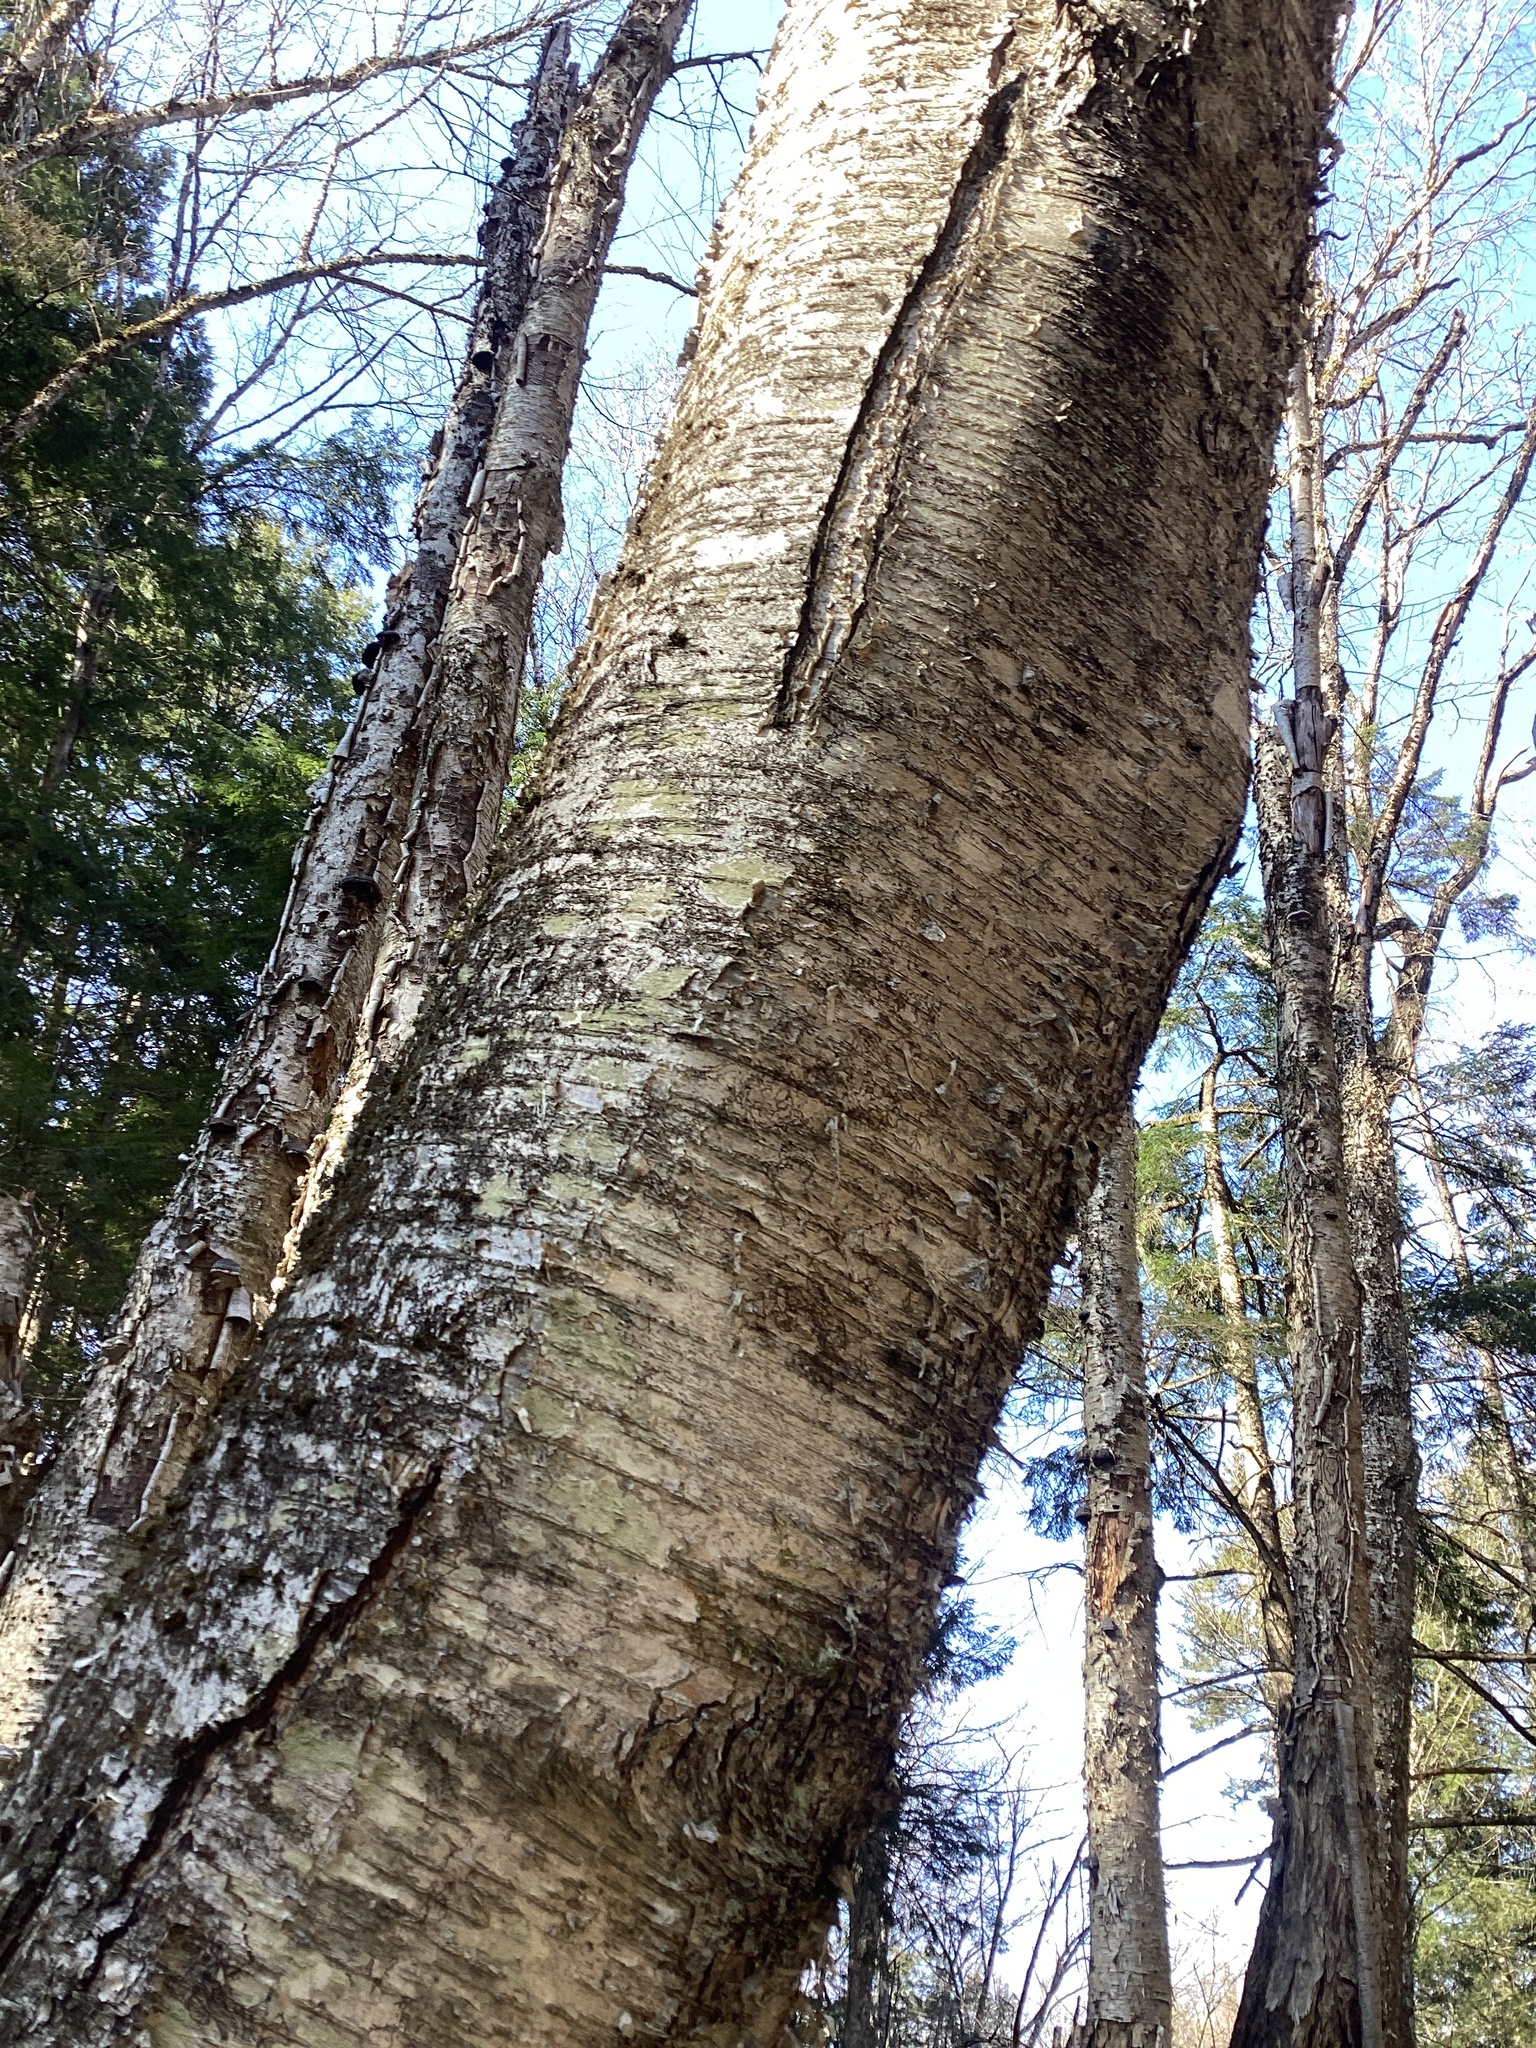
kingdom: Plantae
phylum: Tracheophyta
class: Magnoliopsida
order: Fagales
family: Betulaceae
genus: Betula
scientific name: Betula alleghaniensis
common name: Yellow birch
